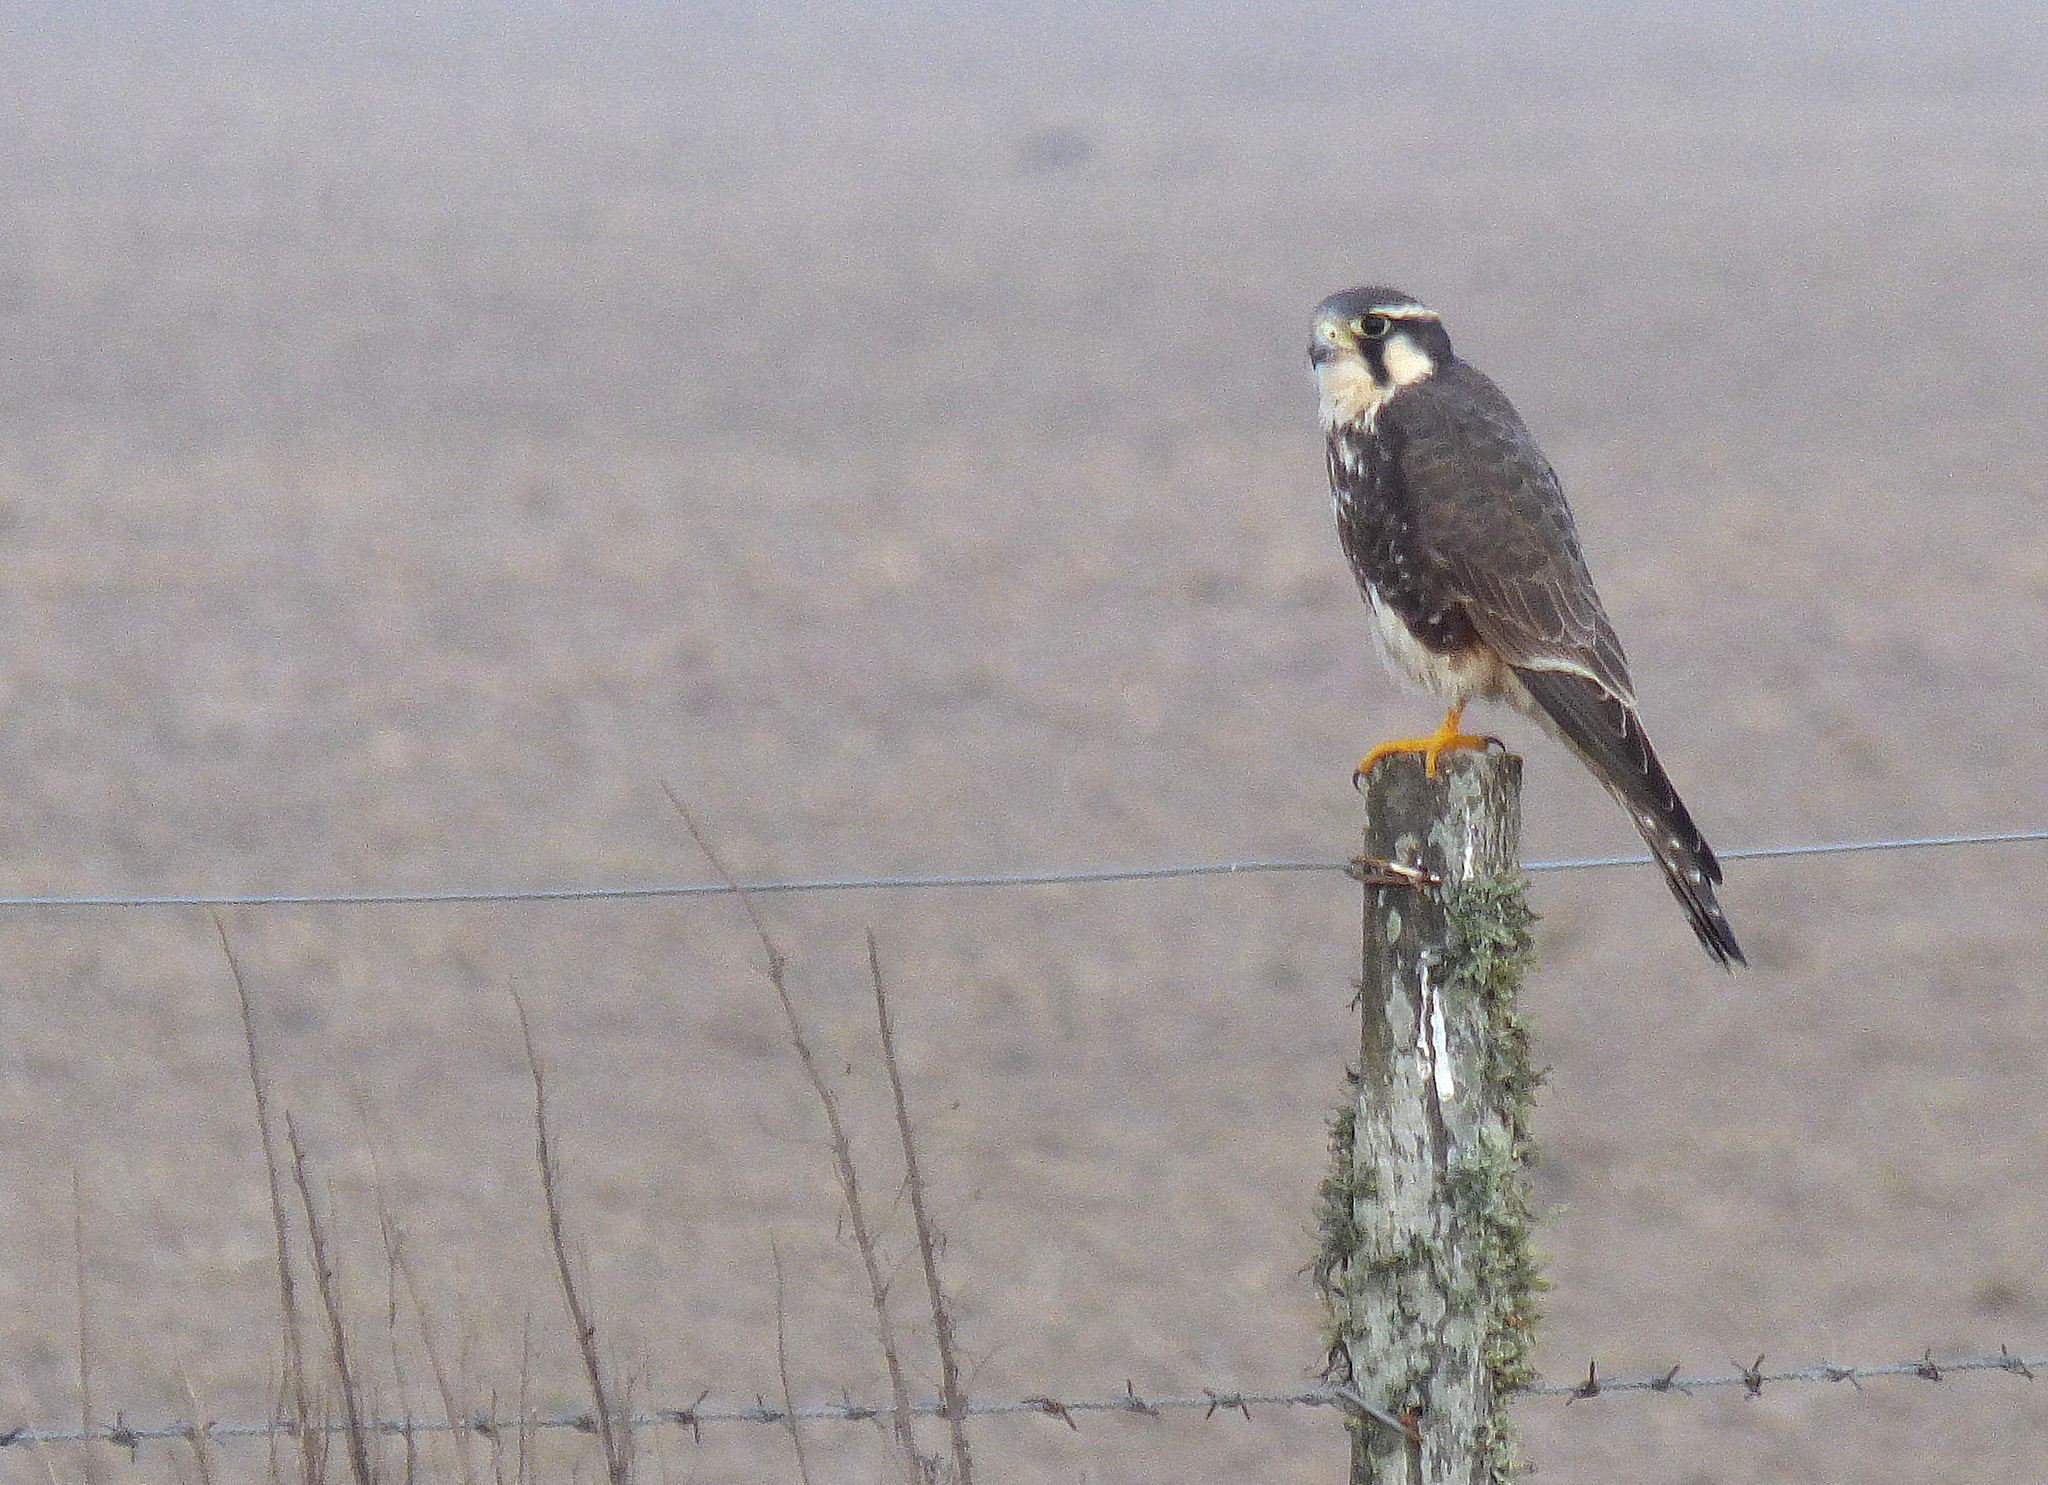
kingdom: Animalia
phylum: Chordata
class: Aves
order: Falconiformes
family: Falconidae
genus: Falco
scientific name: Falco femoralis
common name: Aplomado falcon
